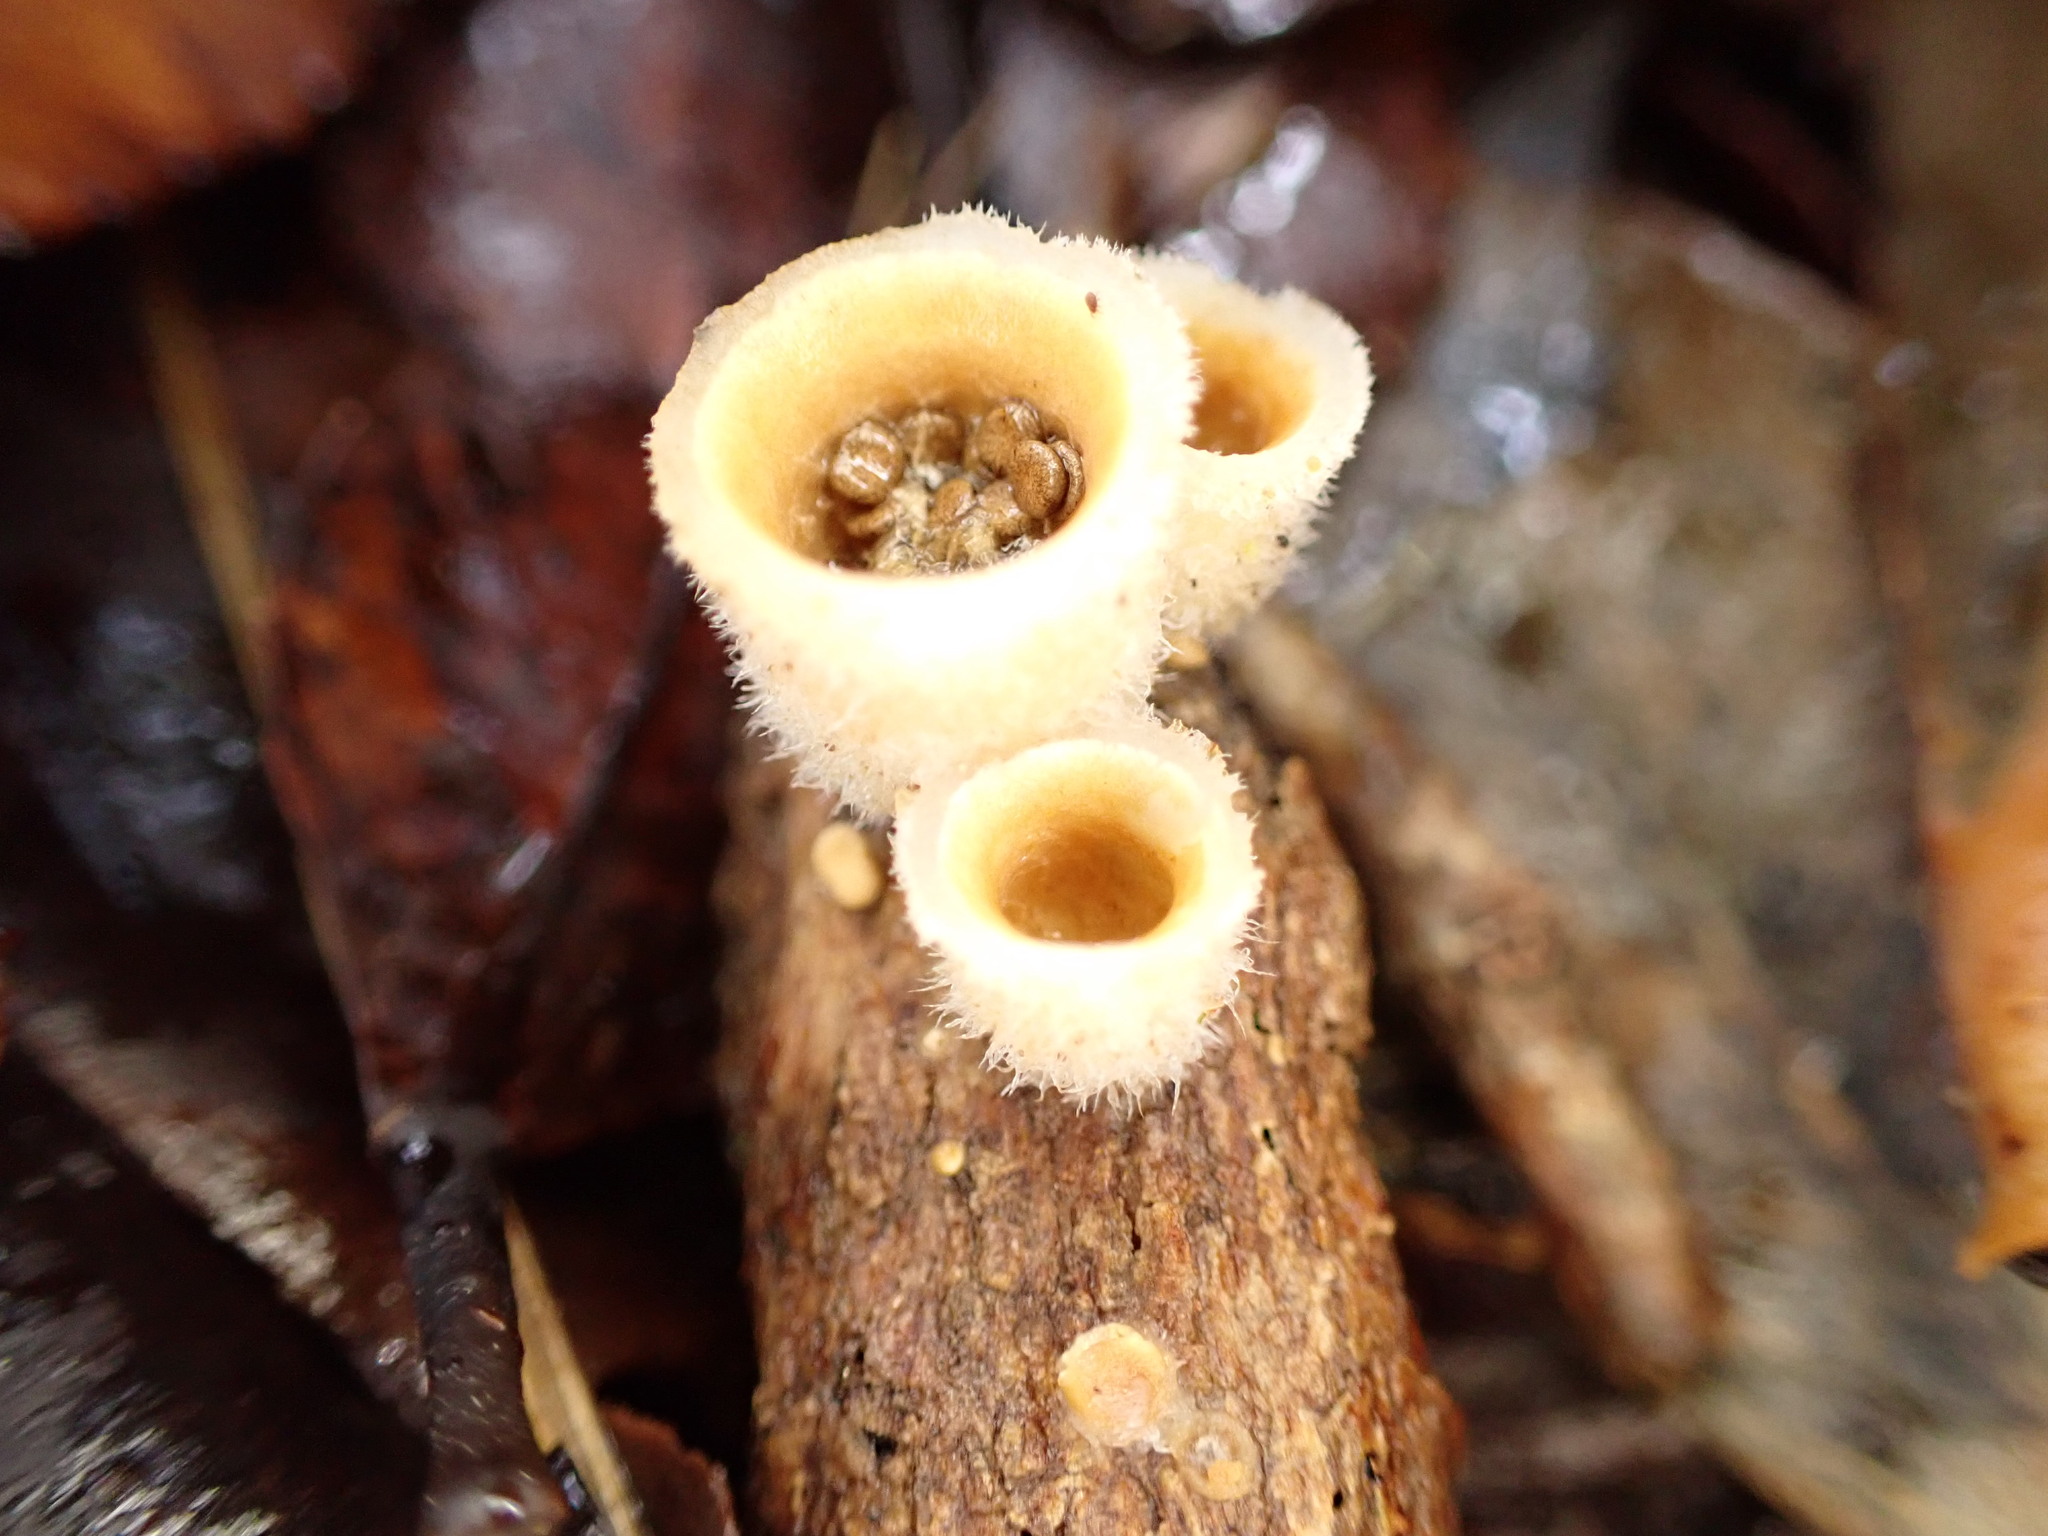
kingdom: Fungi
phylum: Basidiomycota
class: Agaricomycetes
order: Agaricales
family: Agaricaceae
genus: Nidula
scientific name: Nidula niveotomentosa
